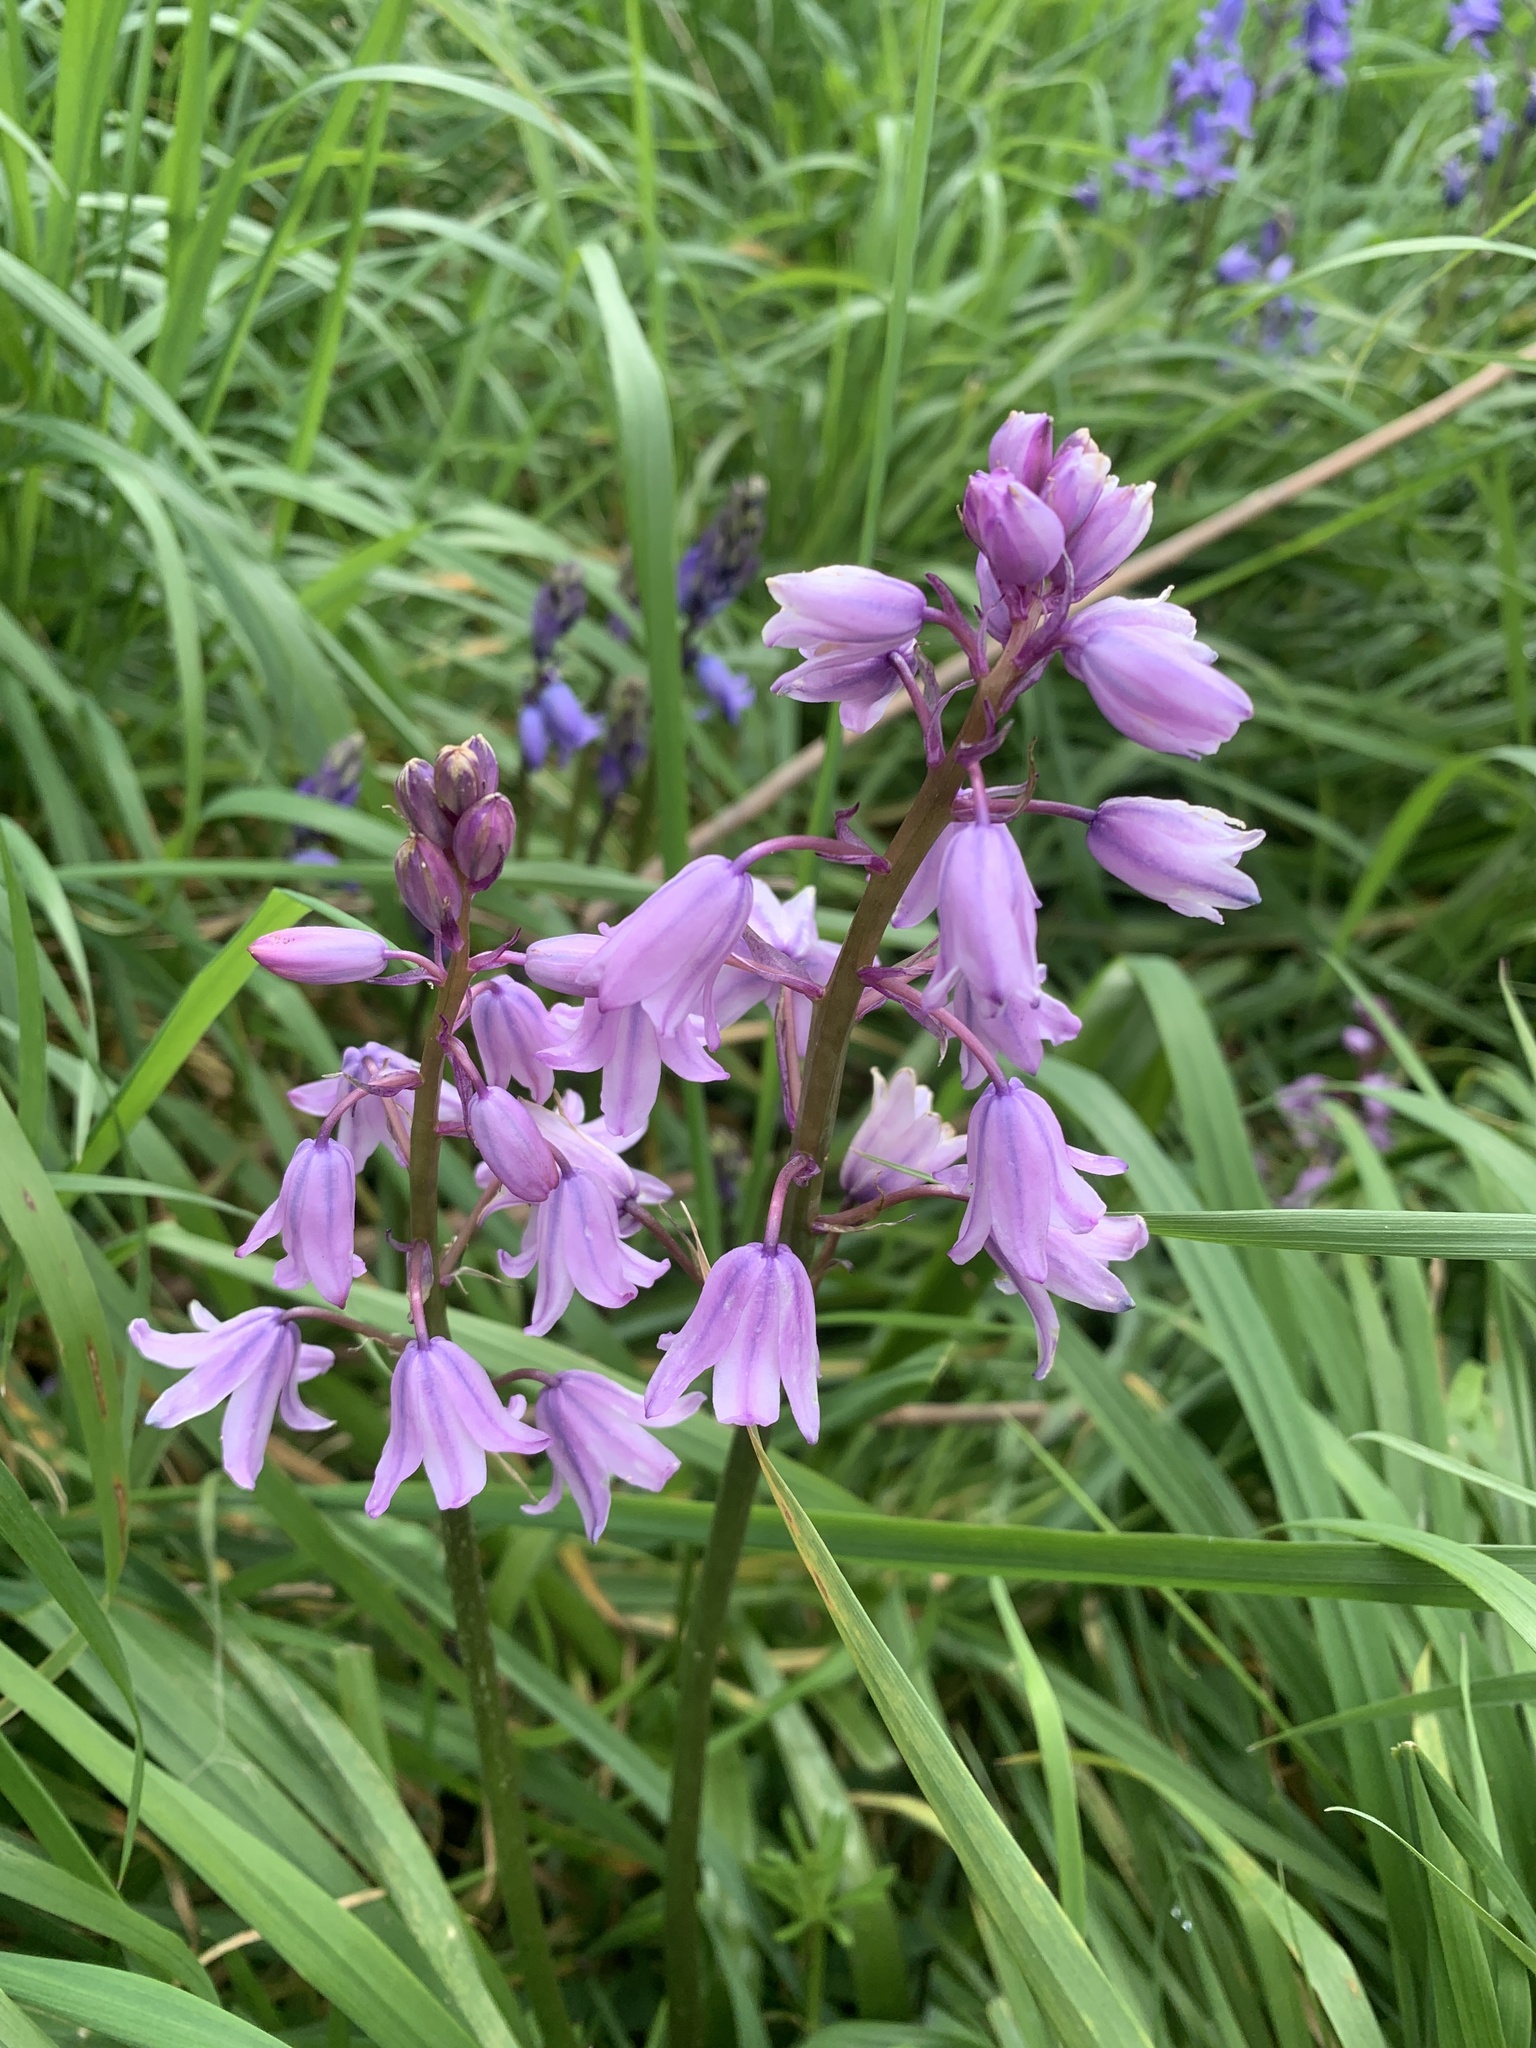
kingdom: Plantae
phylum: Tracheophyta
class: Liliopsida
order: Asparagales
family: Asparagaceae
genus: Hyacinthoides
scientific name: Hyacinthoides hispanica
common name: Spanish bluebell
